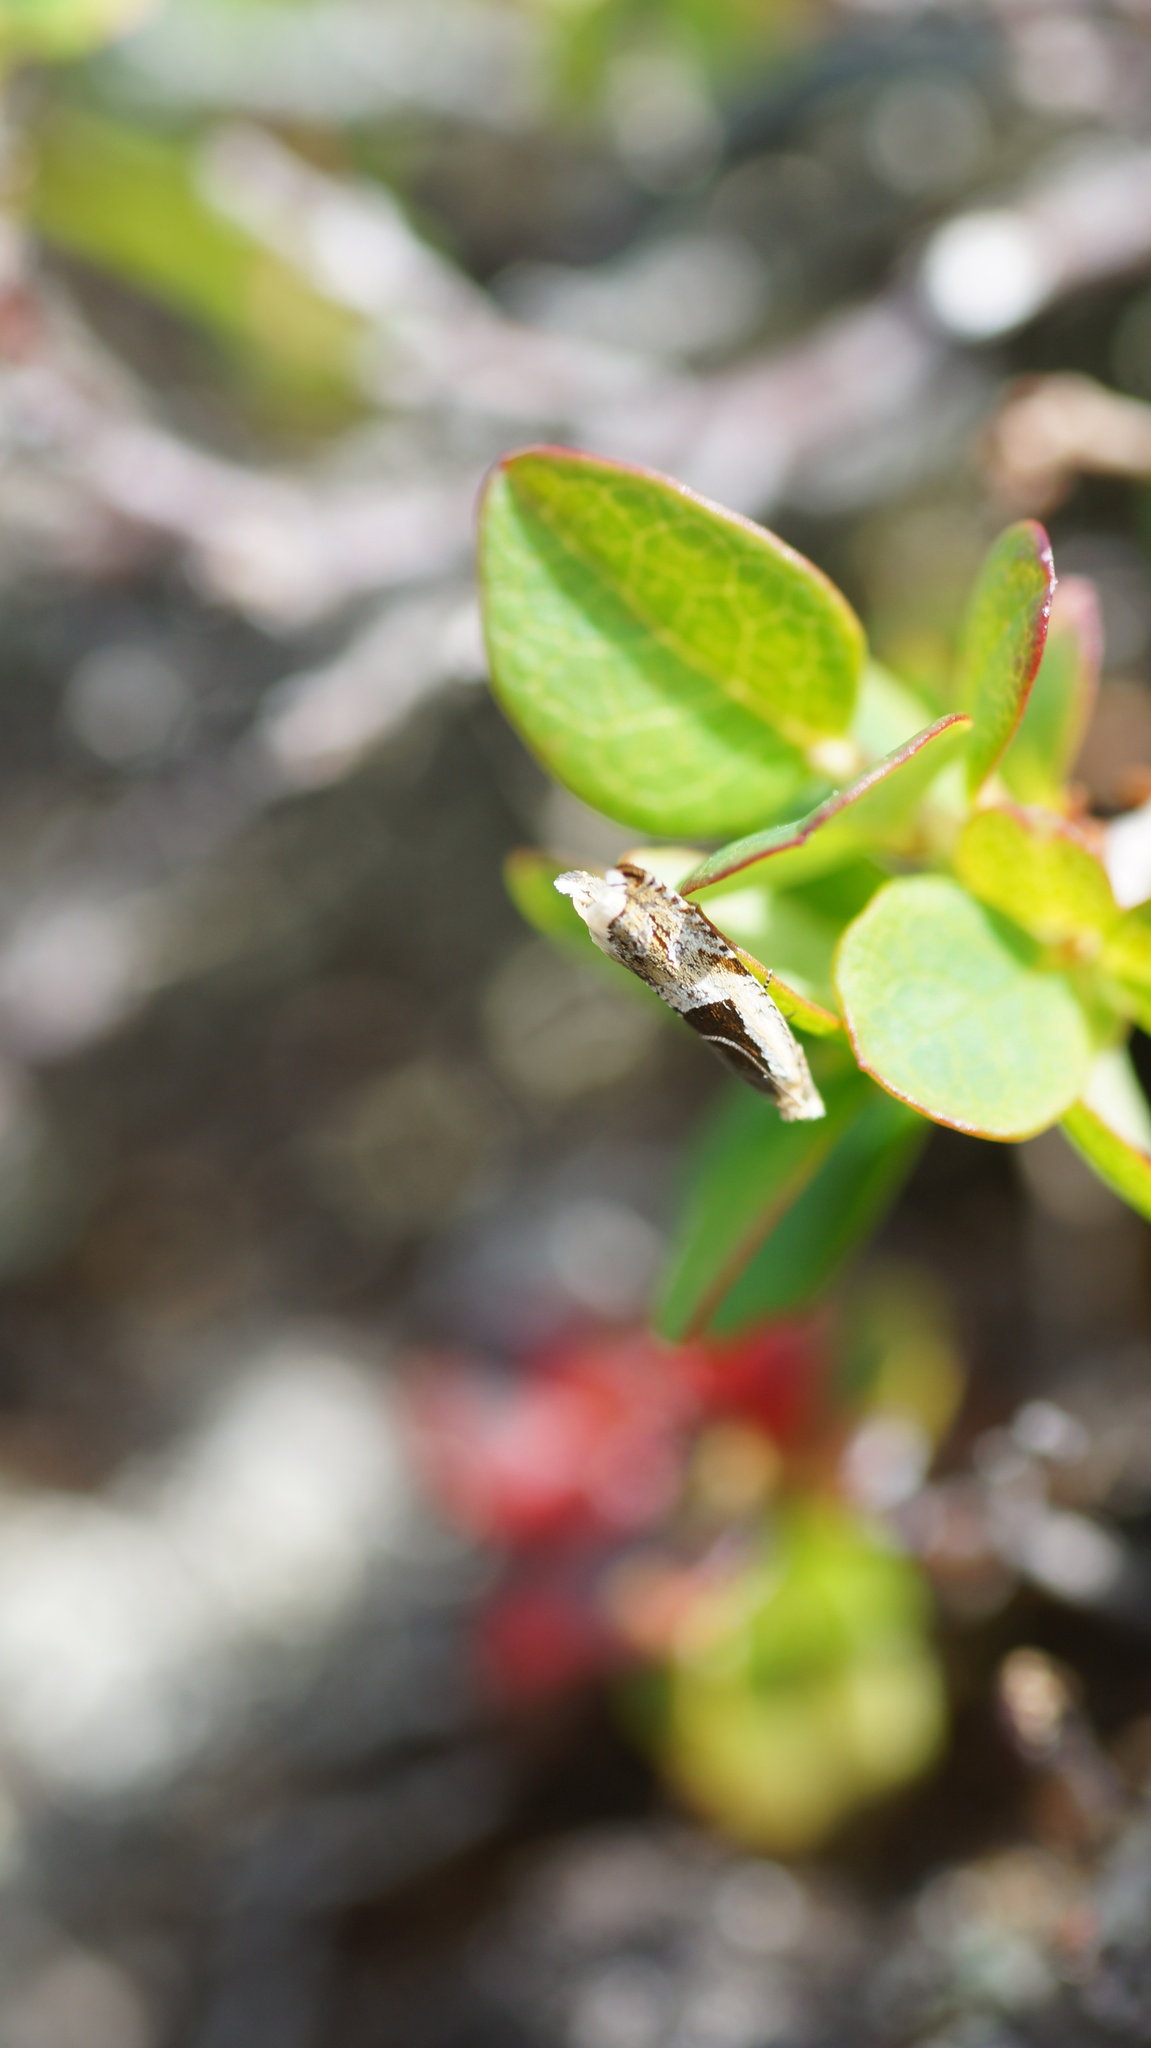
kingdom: Animalia
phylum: Arthropoda
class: Insecta
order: Lepidoptera
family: Tortricidae
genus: Ancylis
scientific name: Ancylis myrtillana
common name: Bilberry roller
